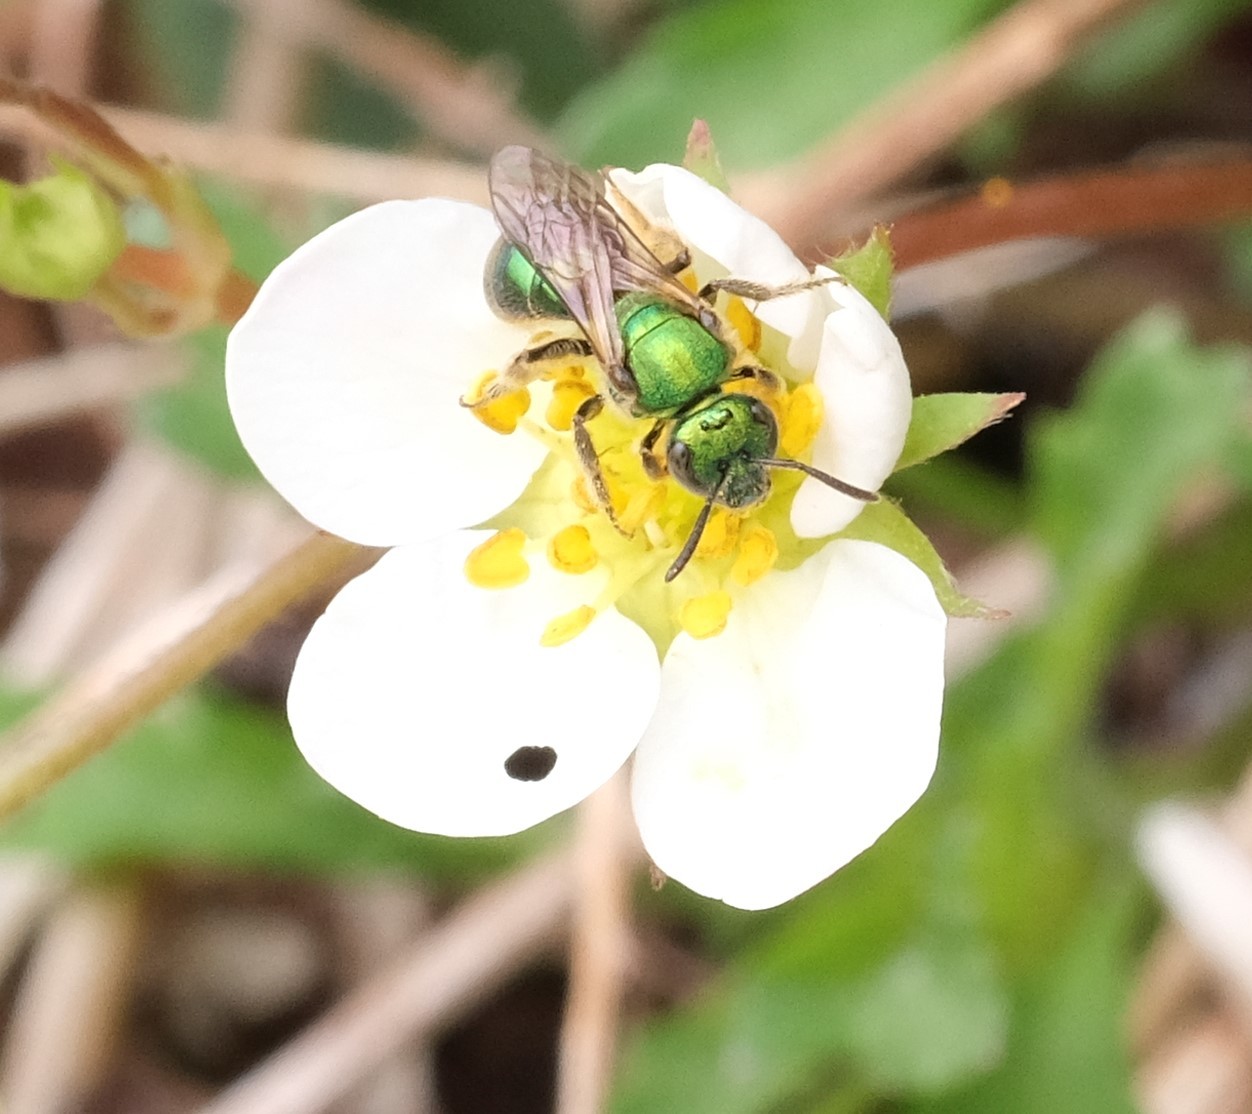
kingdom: Animalia
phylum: Arthropoda
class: Insecta
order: Hymenoptera
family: Halictidae
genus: Augochlorella
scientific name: Augochlorella aurata
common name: Golden sweat bee
